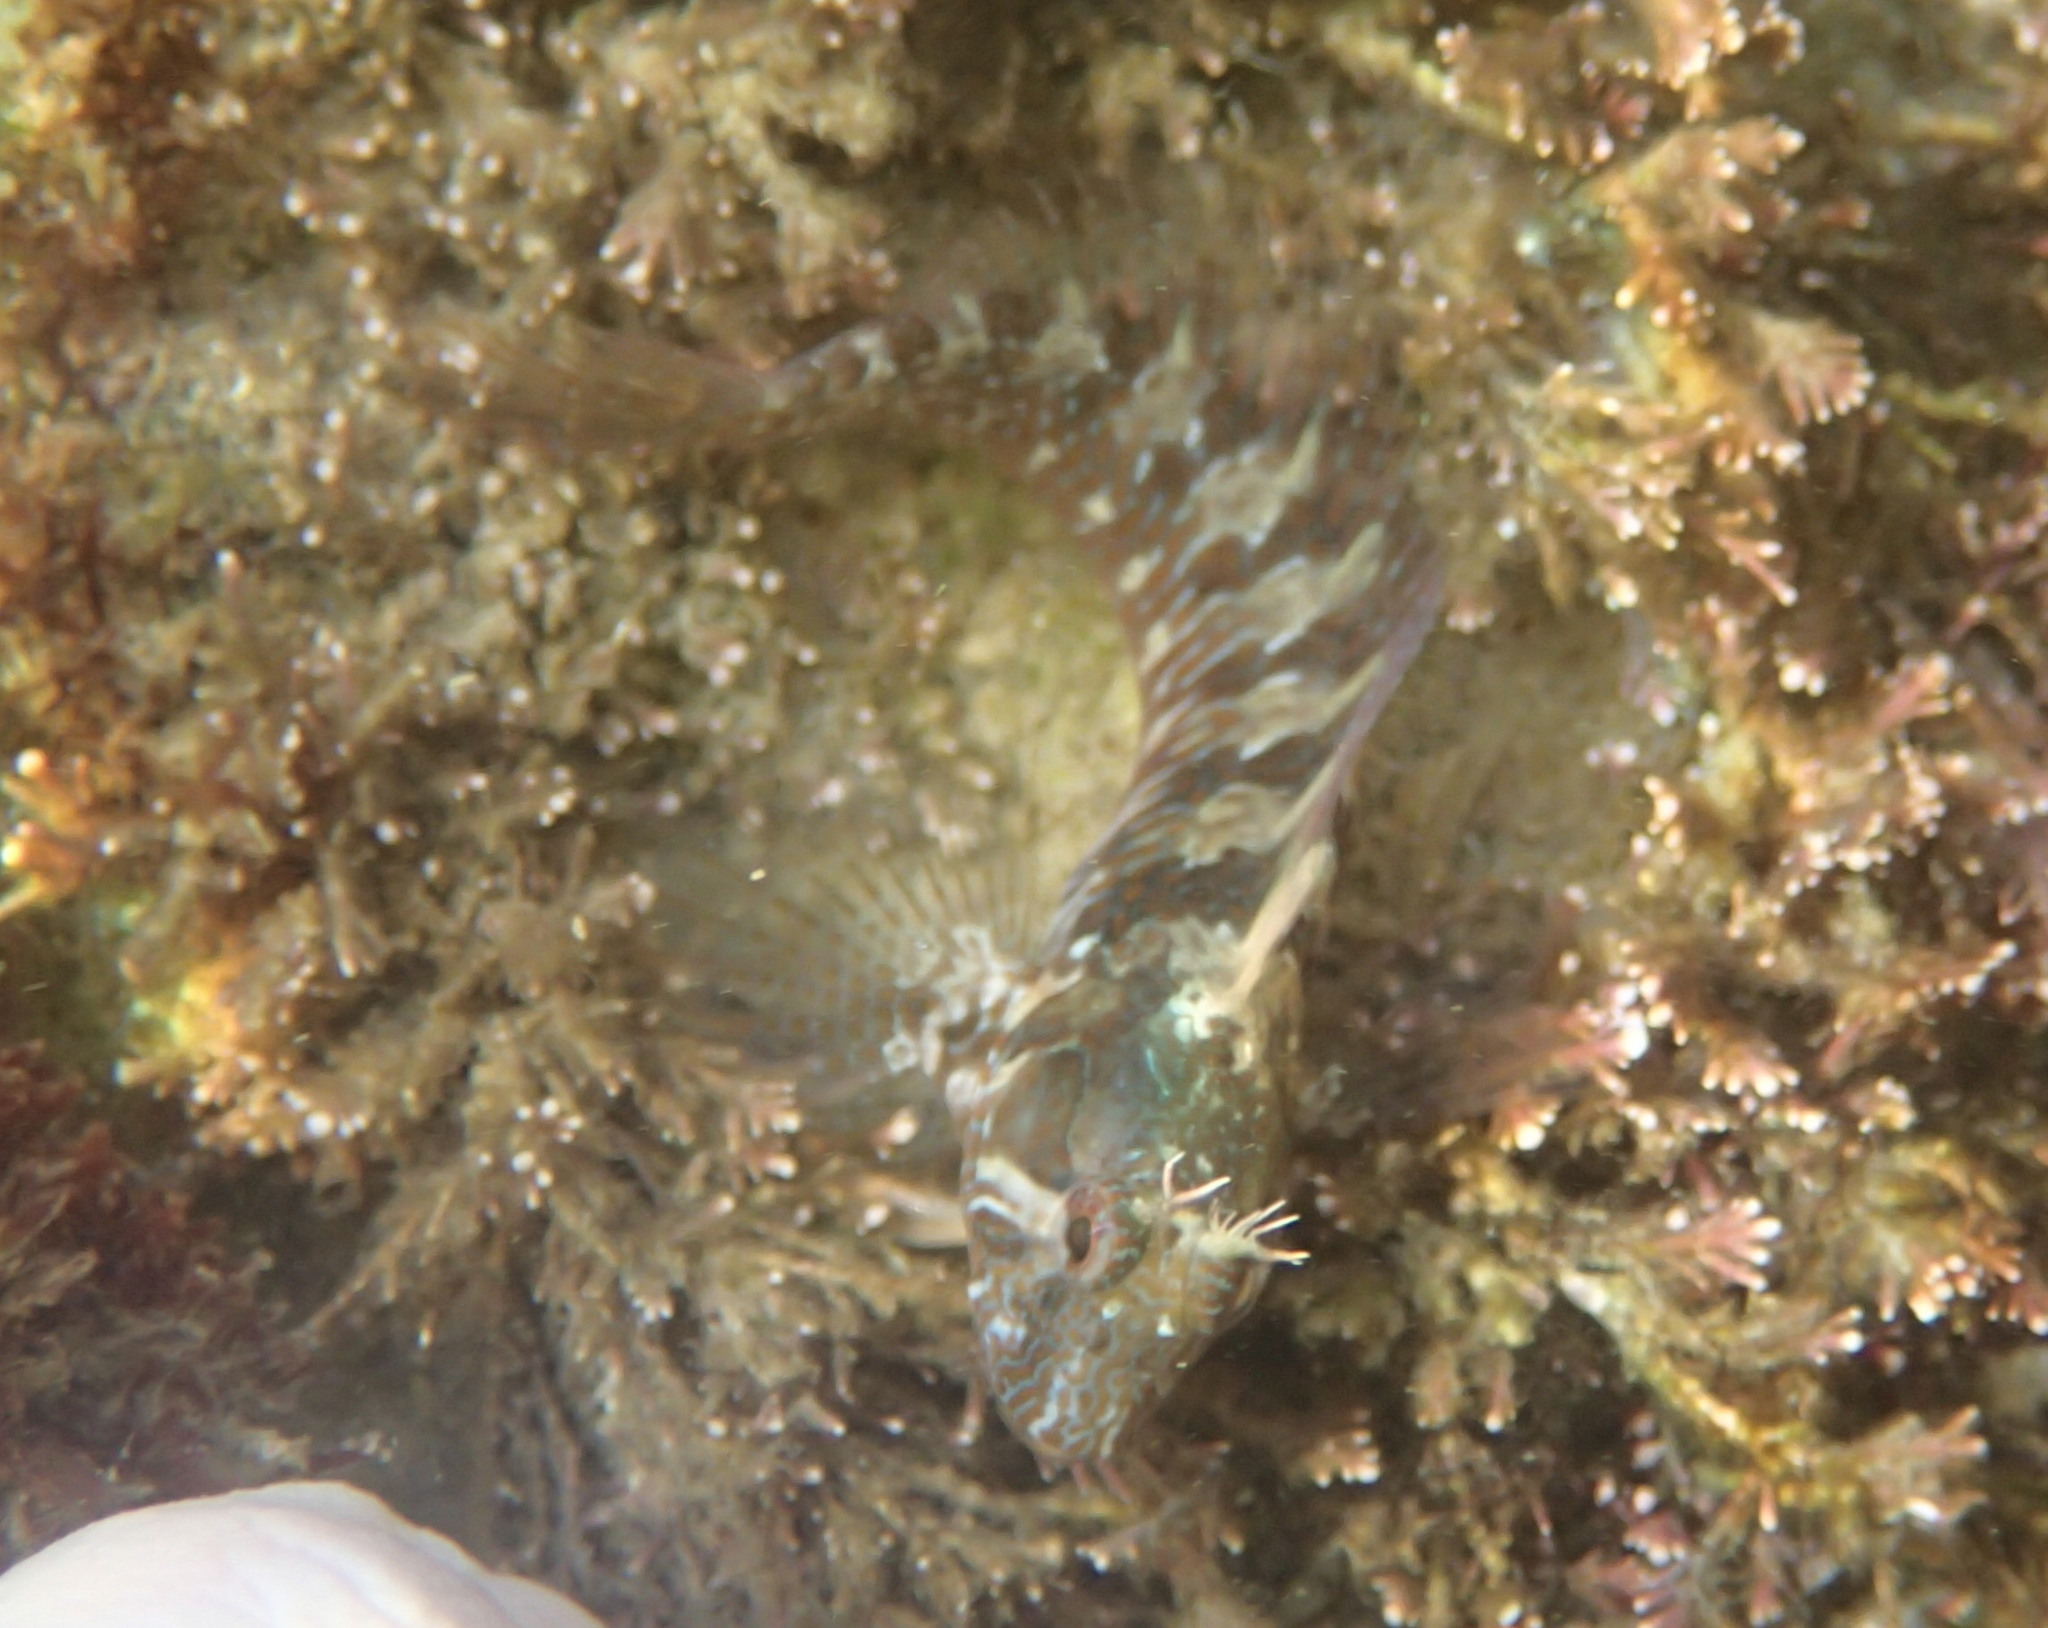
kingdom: Animalia
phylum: Chordata
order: Perciformes
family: Blenniidae
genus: Parablennius
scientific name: Parablennius incognitus
